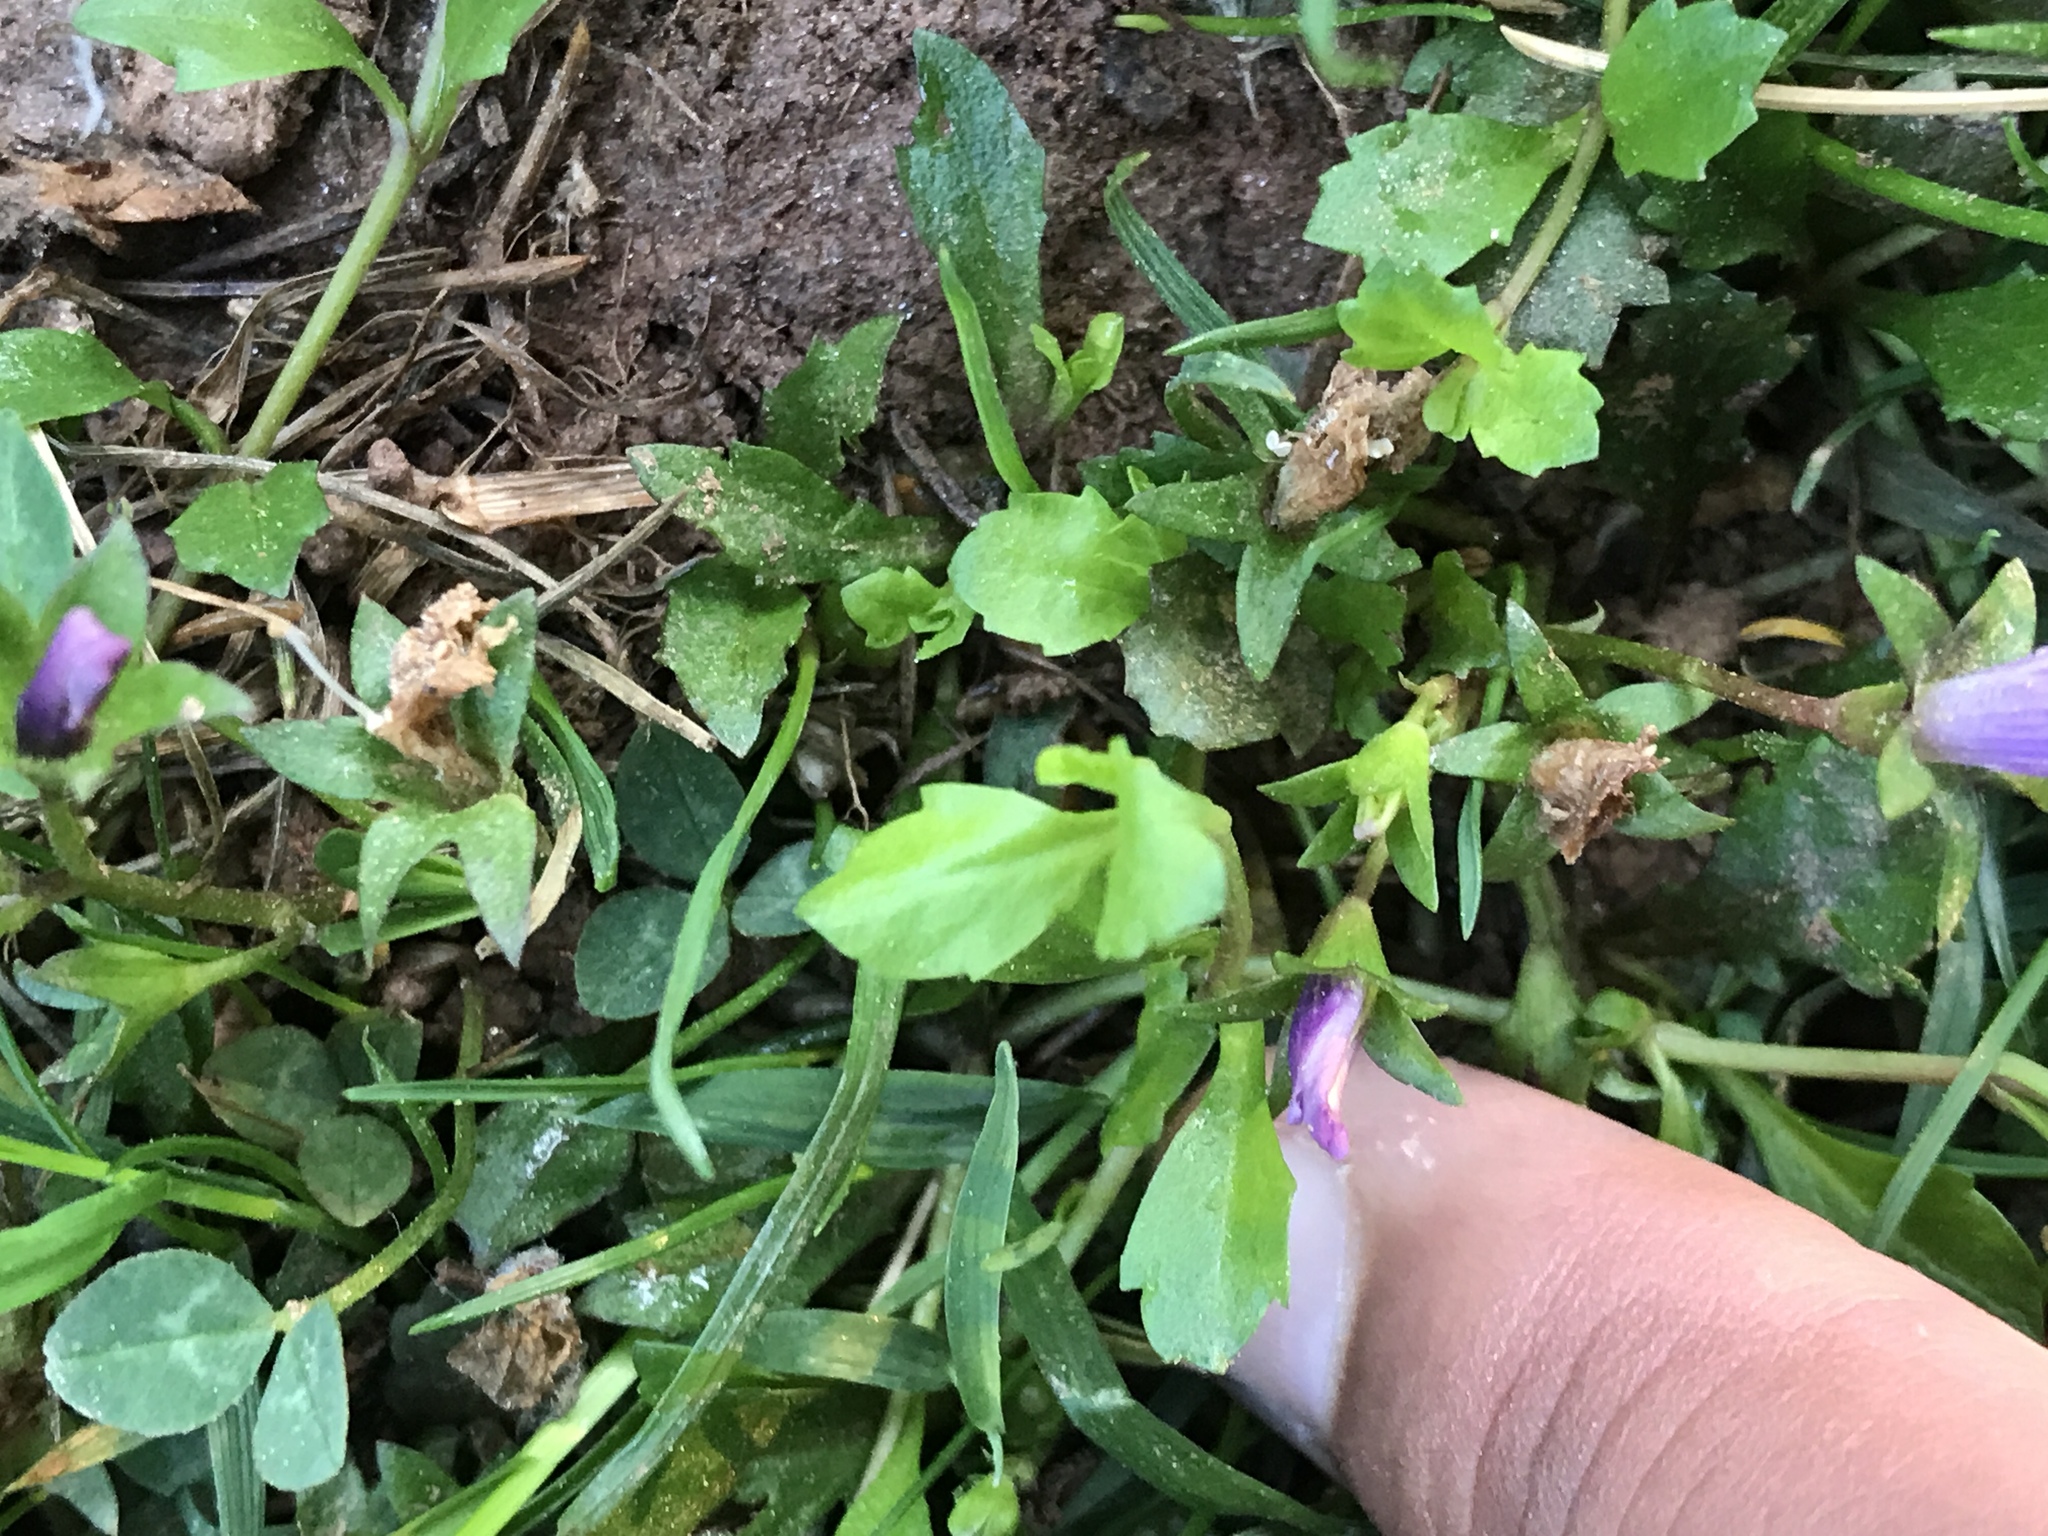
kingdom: Plantae
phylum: Tracheophyta
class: Magnoliopsida
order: Lamiales
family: Mazaceae
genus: Mazus
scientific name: Mazus miquelii
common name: Miquel's mazus
